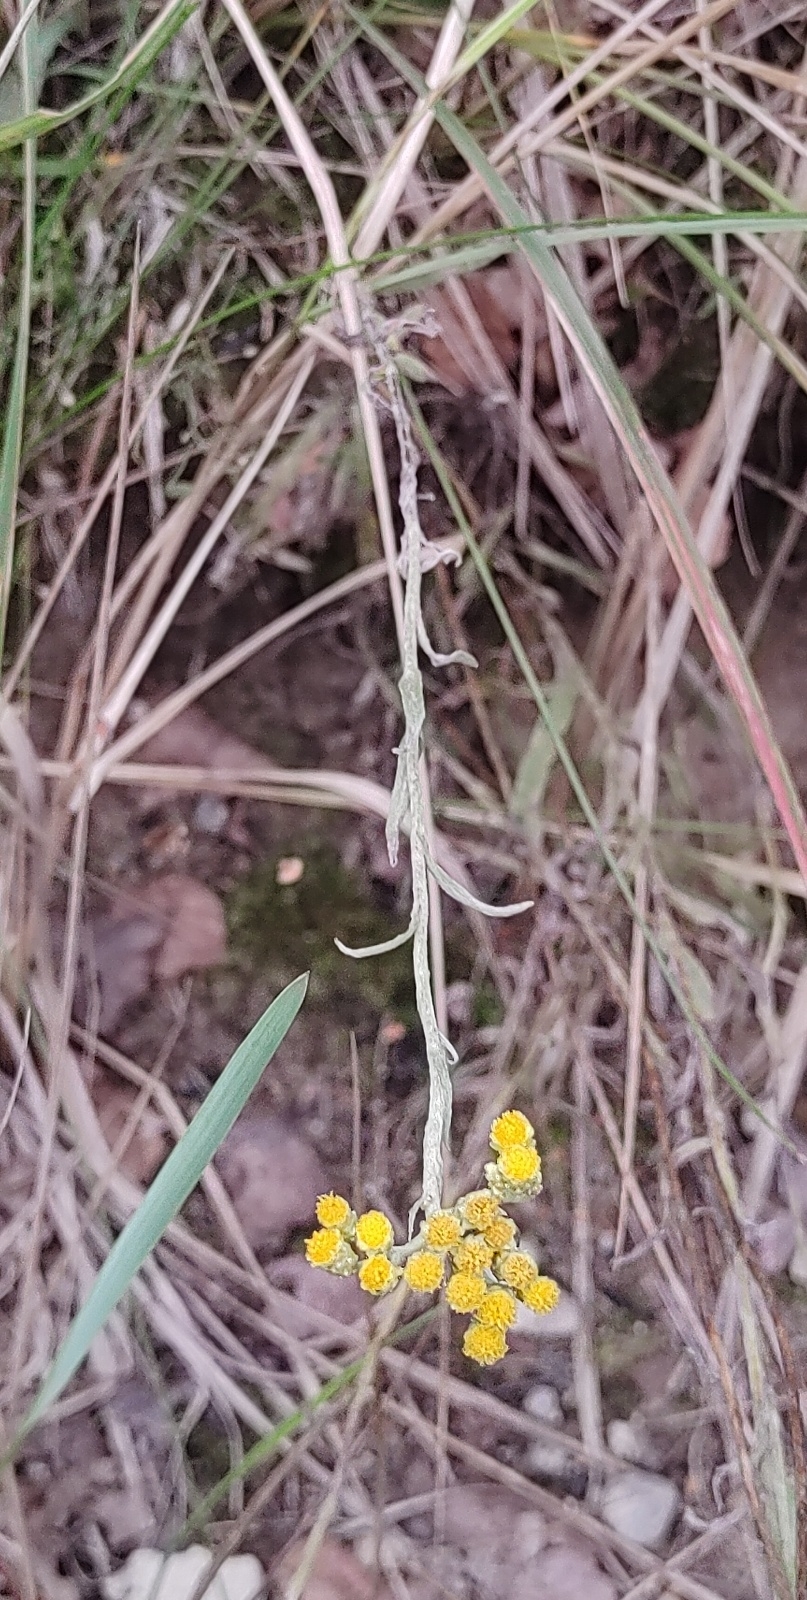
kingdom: Plantae
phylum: Tracheophyta
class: Magnoliopsida
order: Asterales
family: Asteraceae
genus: Helichrysum
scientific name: Helichrysum arenarium
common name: Strawflower
